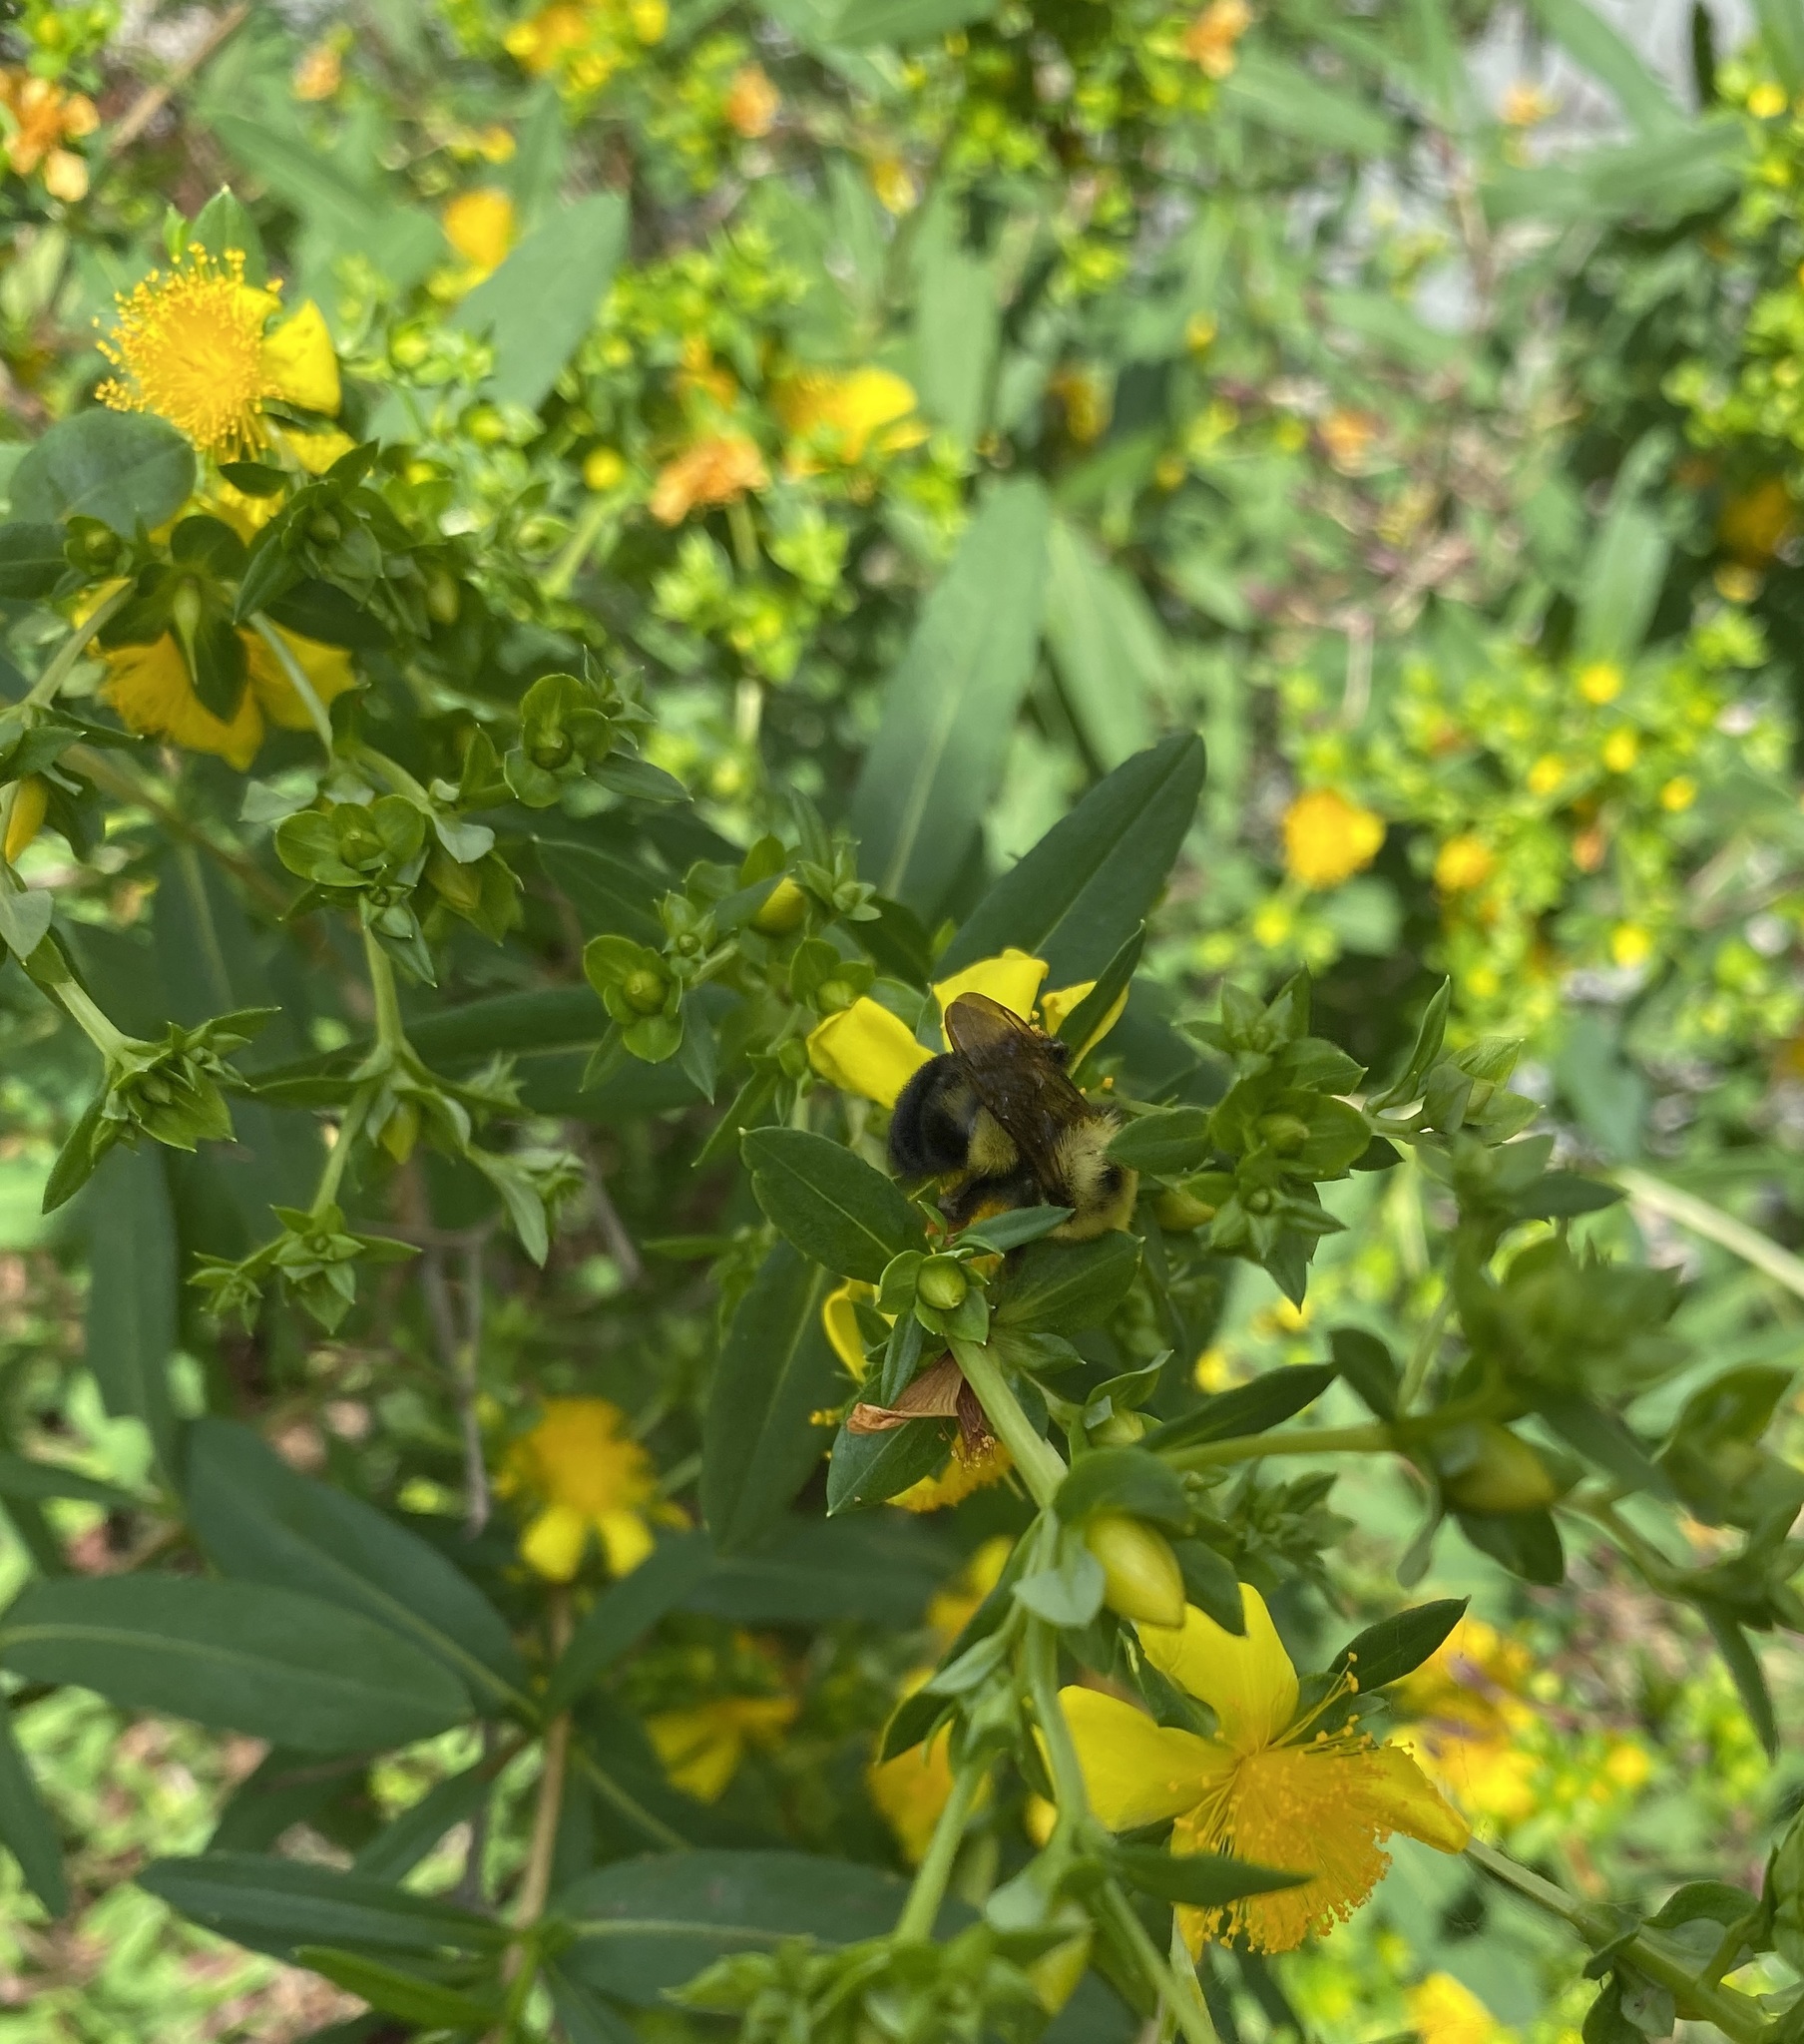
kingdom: Animalia
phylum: Arthropoda
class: Insecta
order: Hymenoptera
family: Apidae
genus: Bombus
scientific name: Bombus bimaculatus
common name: Two-spotted bumble bee
